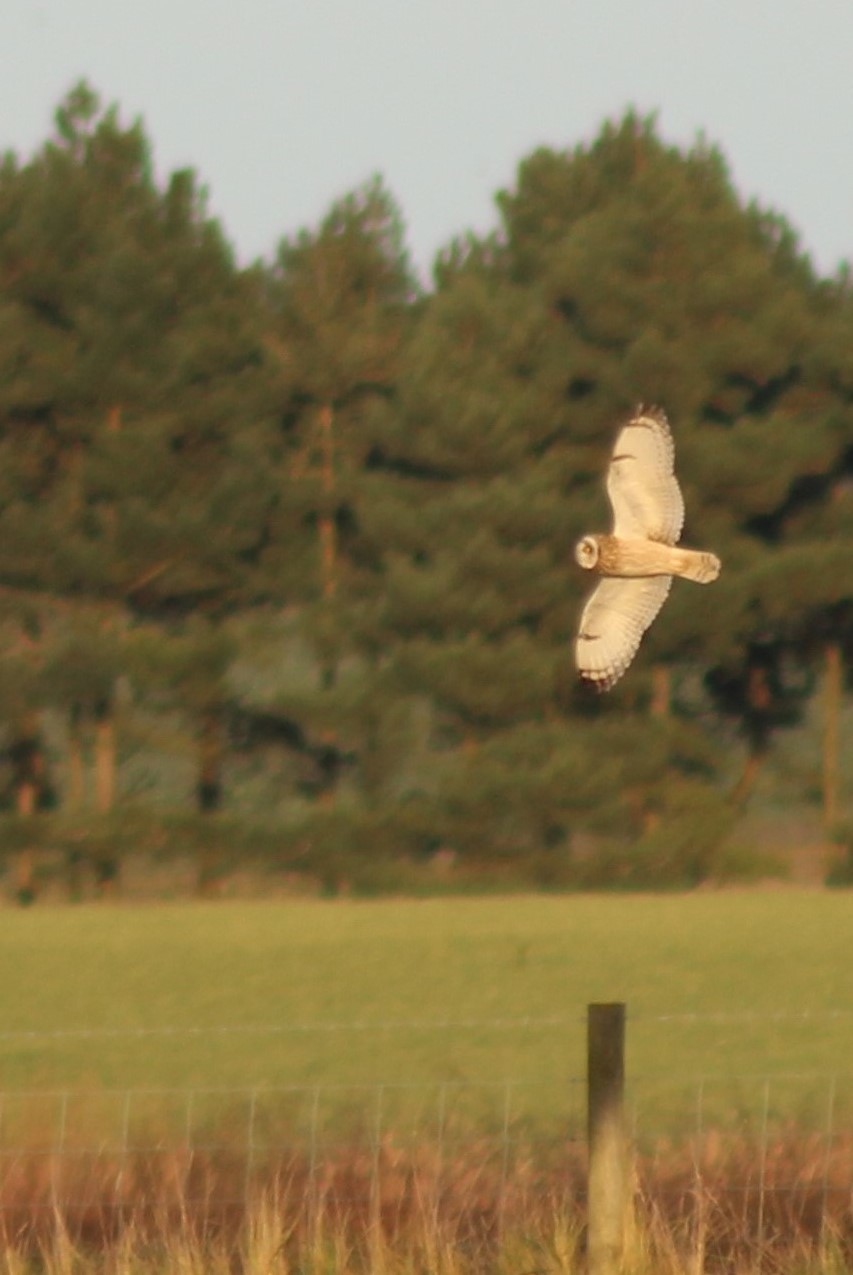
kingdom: Animalia
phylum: Chordata
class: Aves
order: Strigiformes
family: Strigidae
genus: Asio
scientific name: Asio flammeus
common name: Short-eared owl
